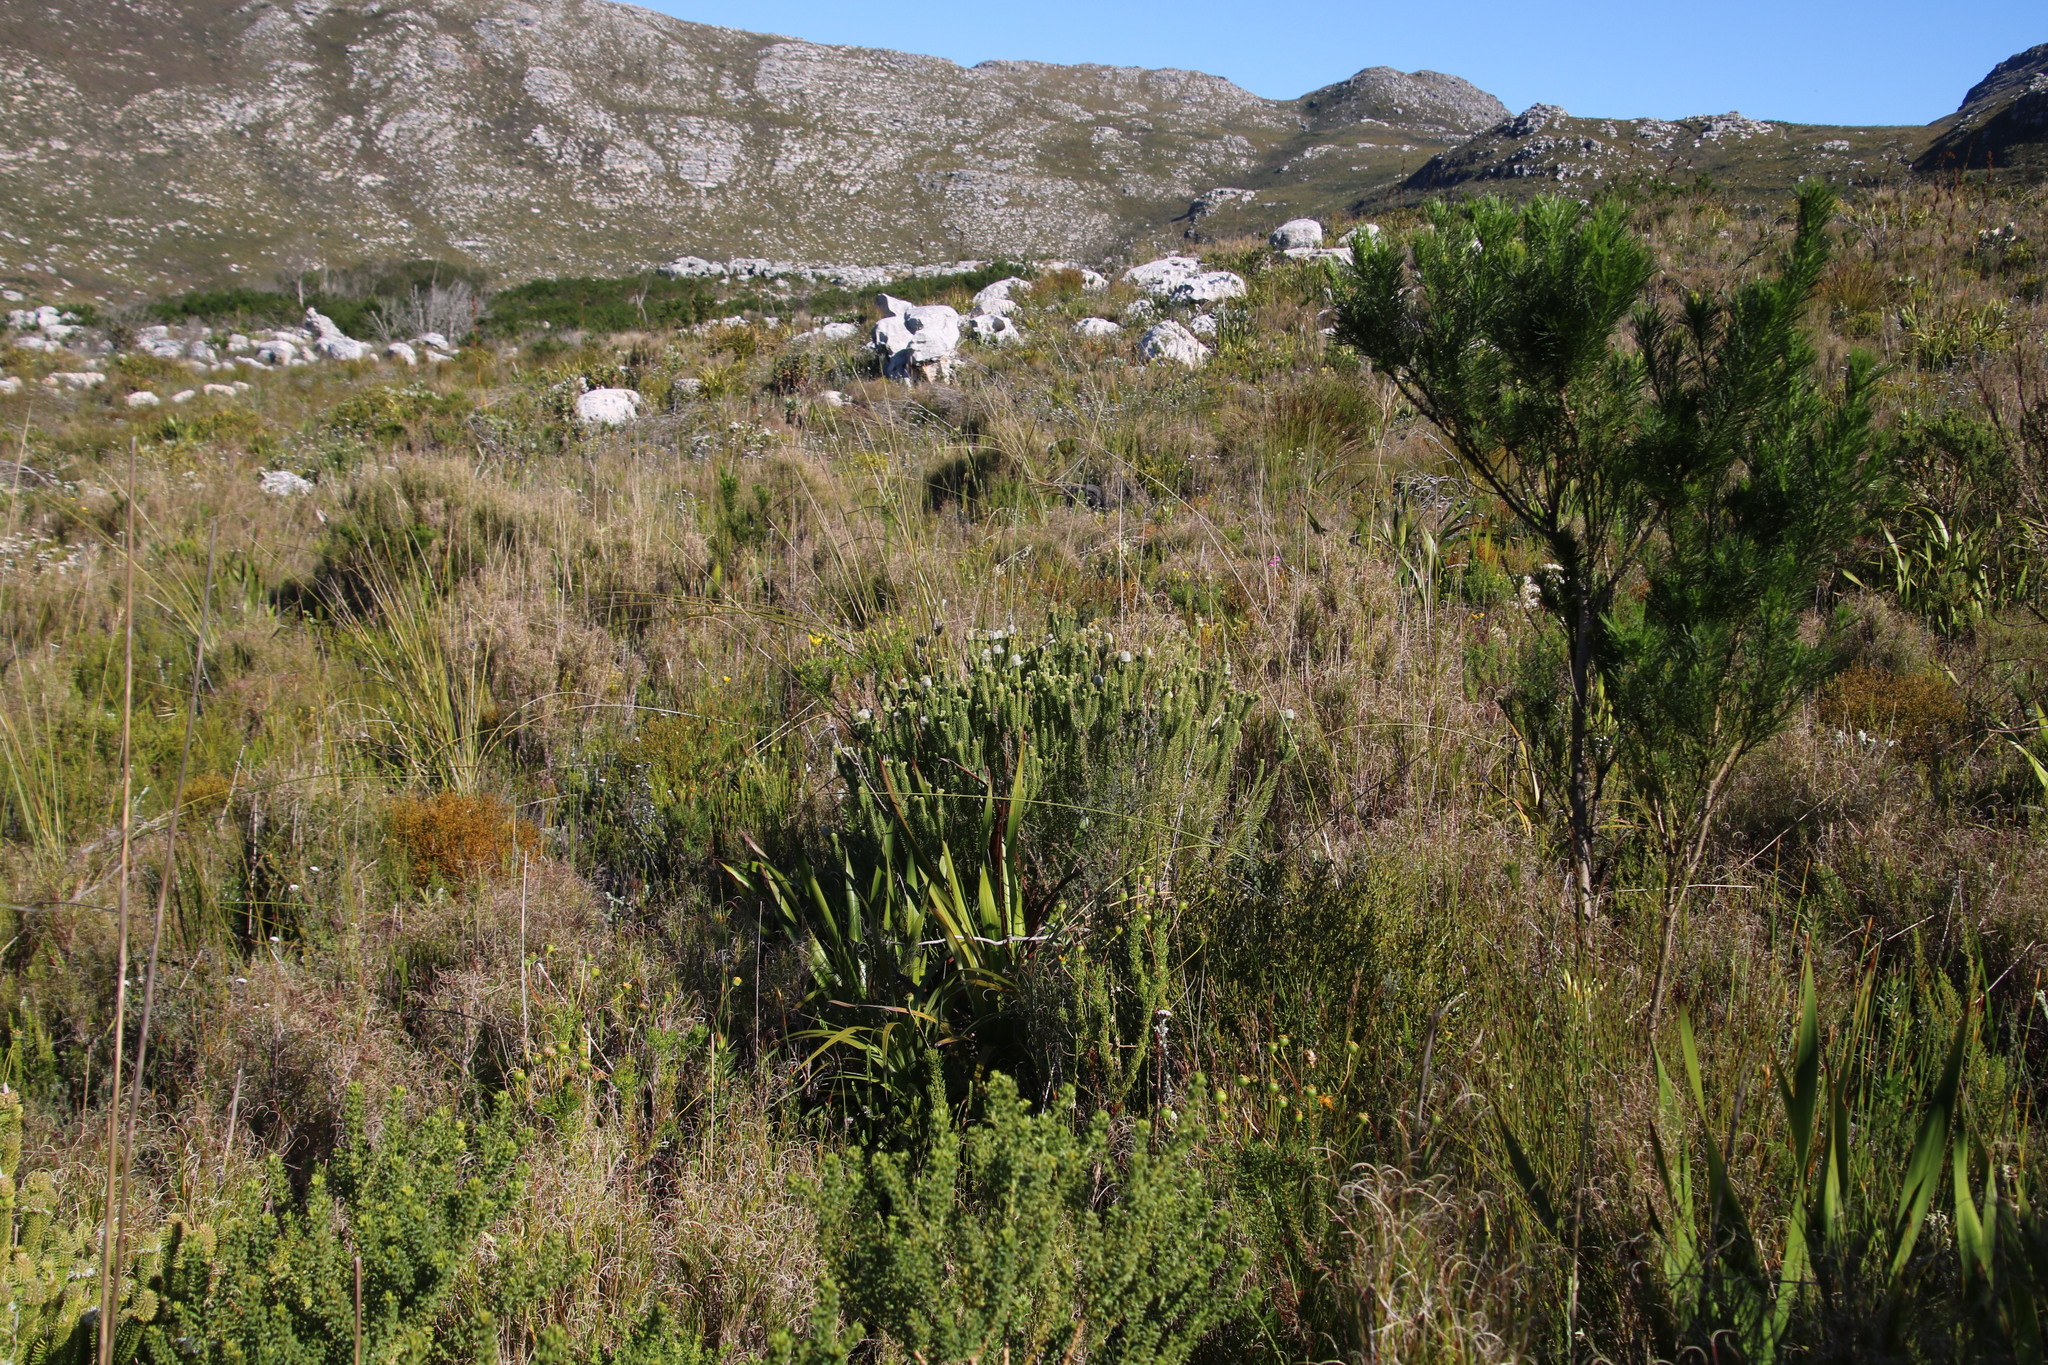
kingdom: Plantae
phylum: Tracheophyta
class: Magnoliopsida
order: Lamiales
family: Stilbaceae
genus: Stilbe
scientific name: Stilbe vestita
